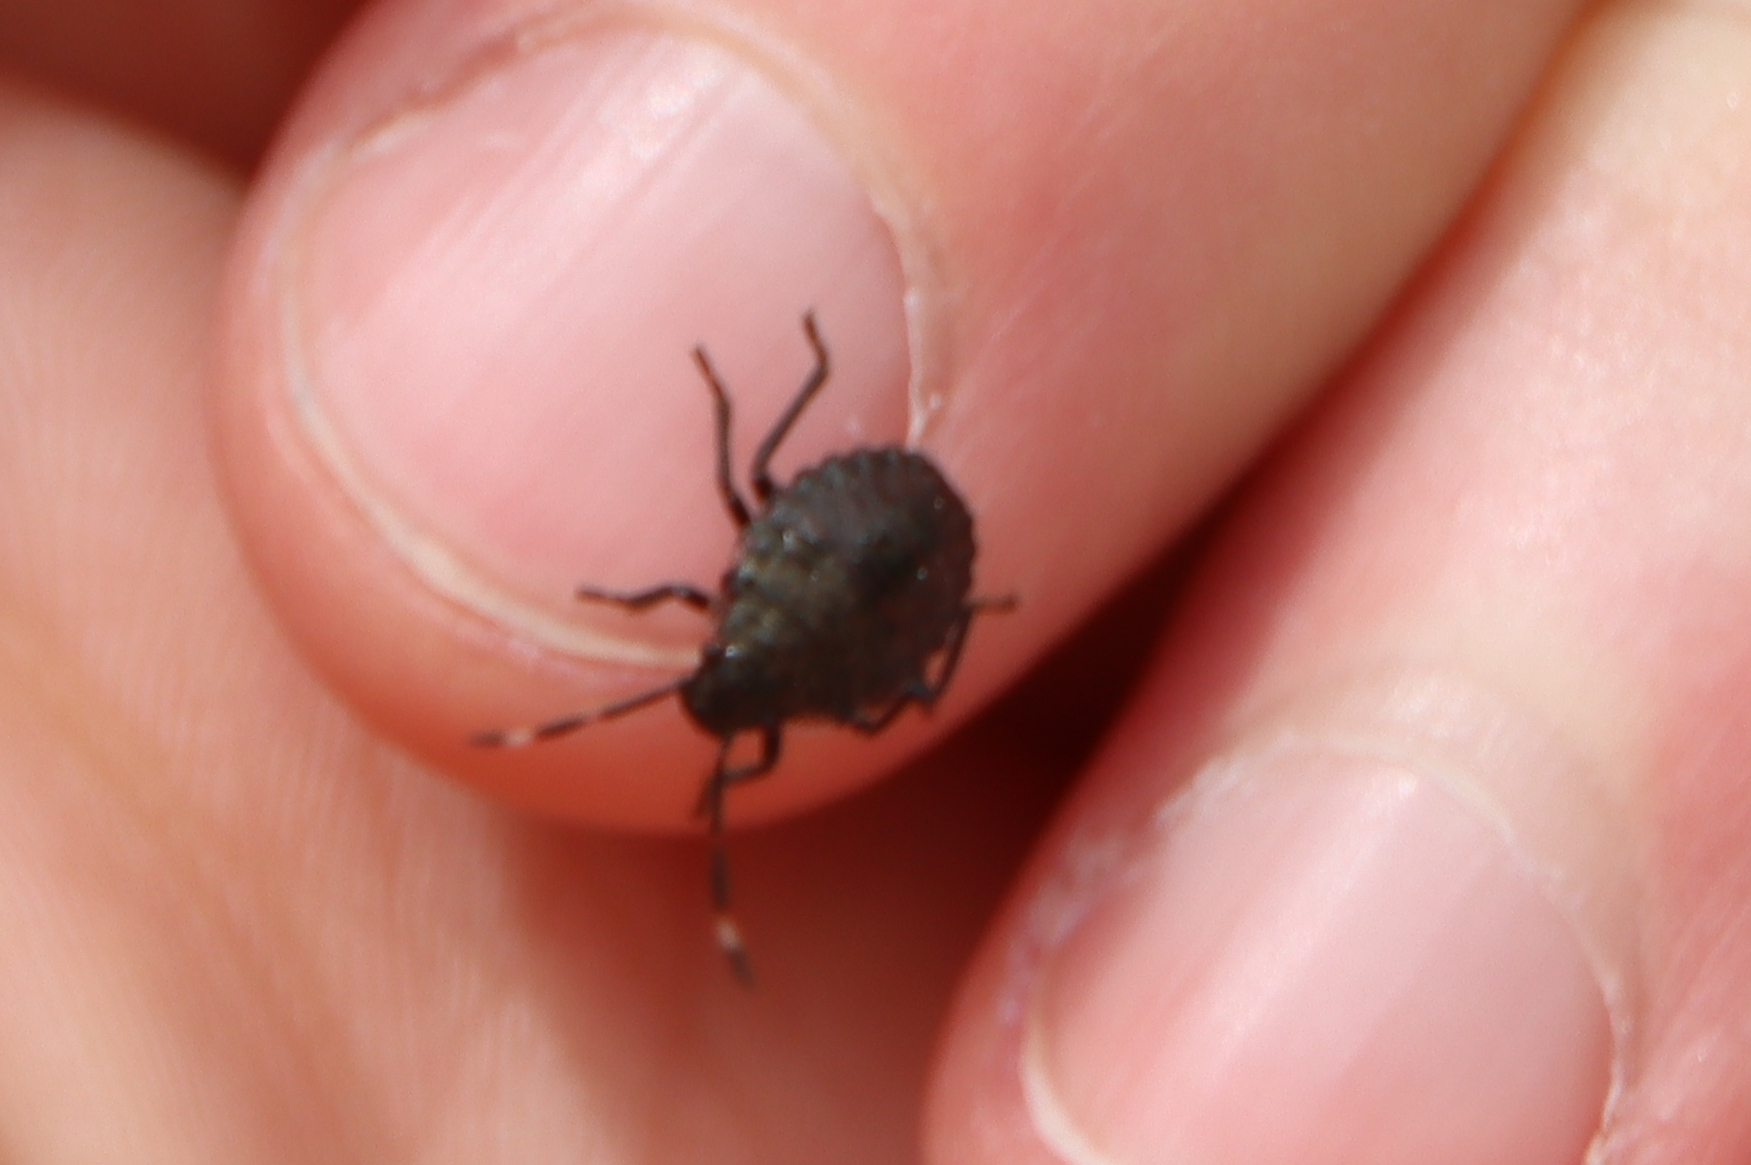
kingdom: Animalia
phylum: Arthropoda
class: Insecta
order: Hemiptera
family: Pentatomidae
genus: Halyomorpha
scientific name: Halyomorpha halys
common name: Brown marmorated stink bug
